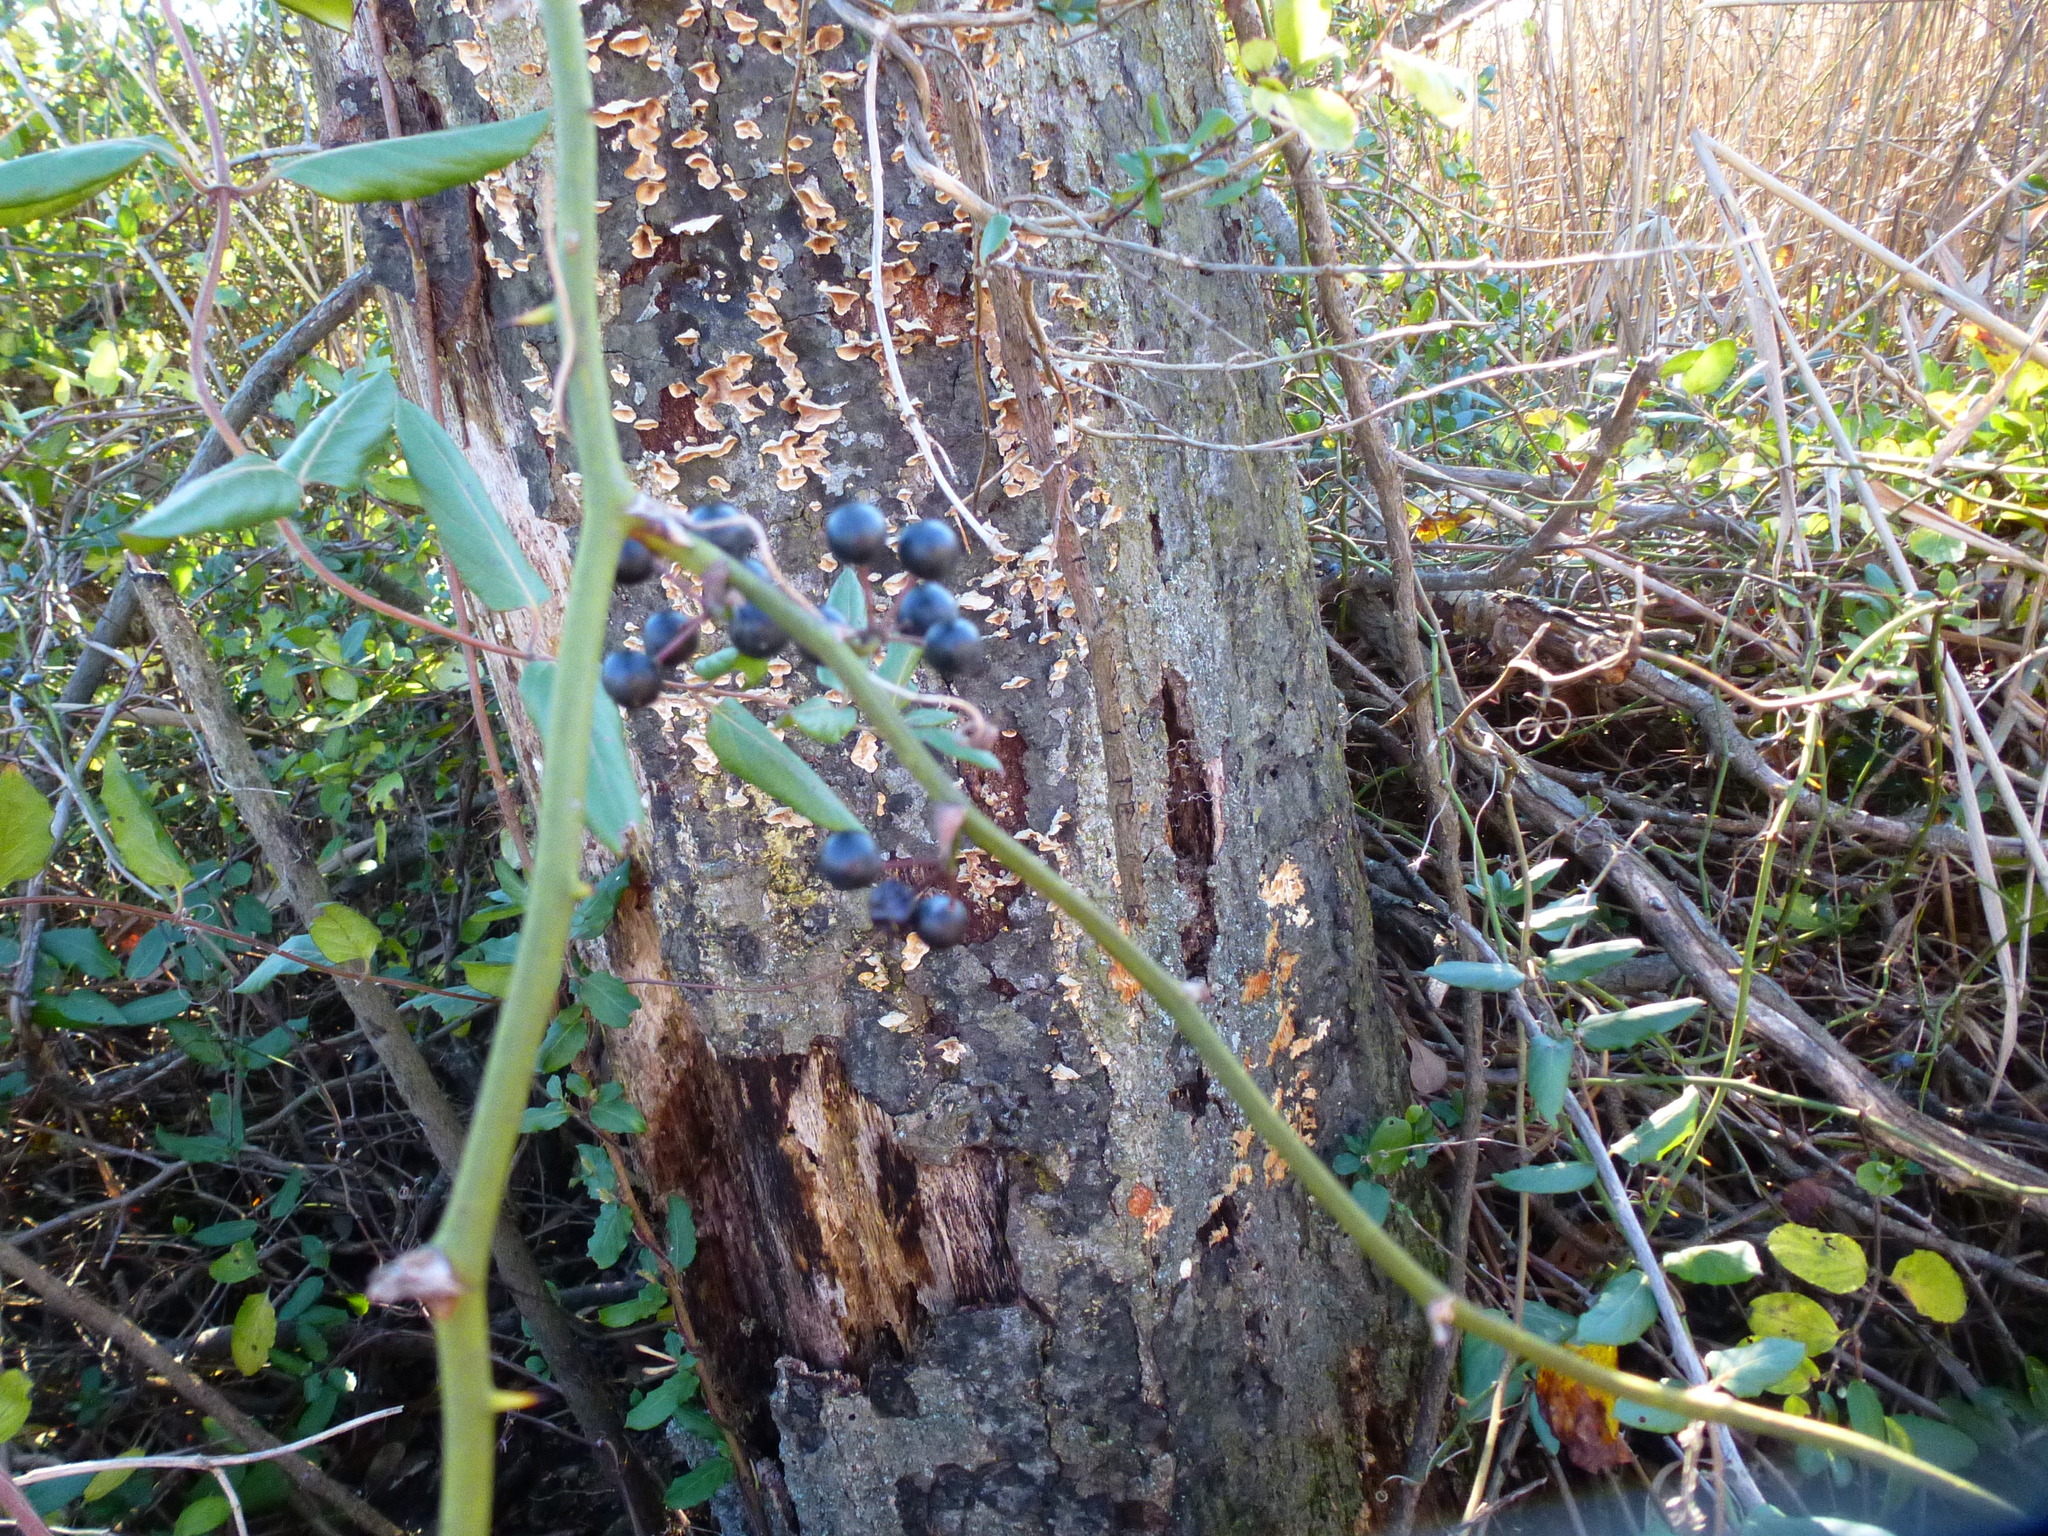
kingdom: Plantae
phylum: Tracheophyta
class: Liliopsida
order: Liliales
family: Smilacaceae
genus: Smilax
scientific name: Smilax rotundifolia
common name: Bullbriar
